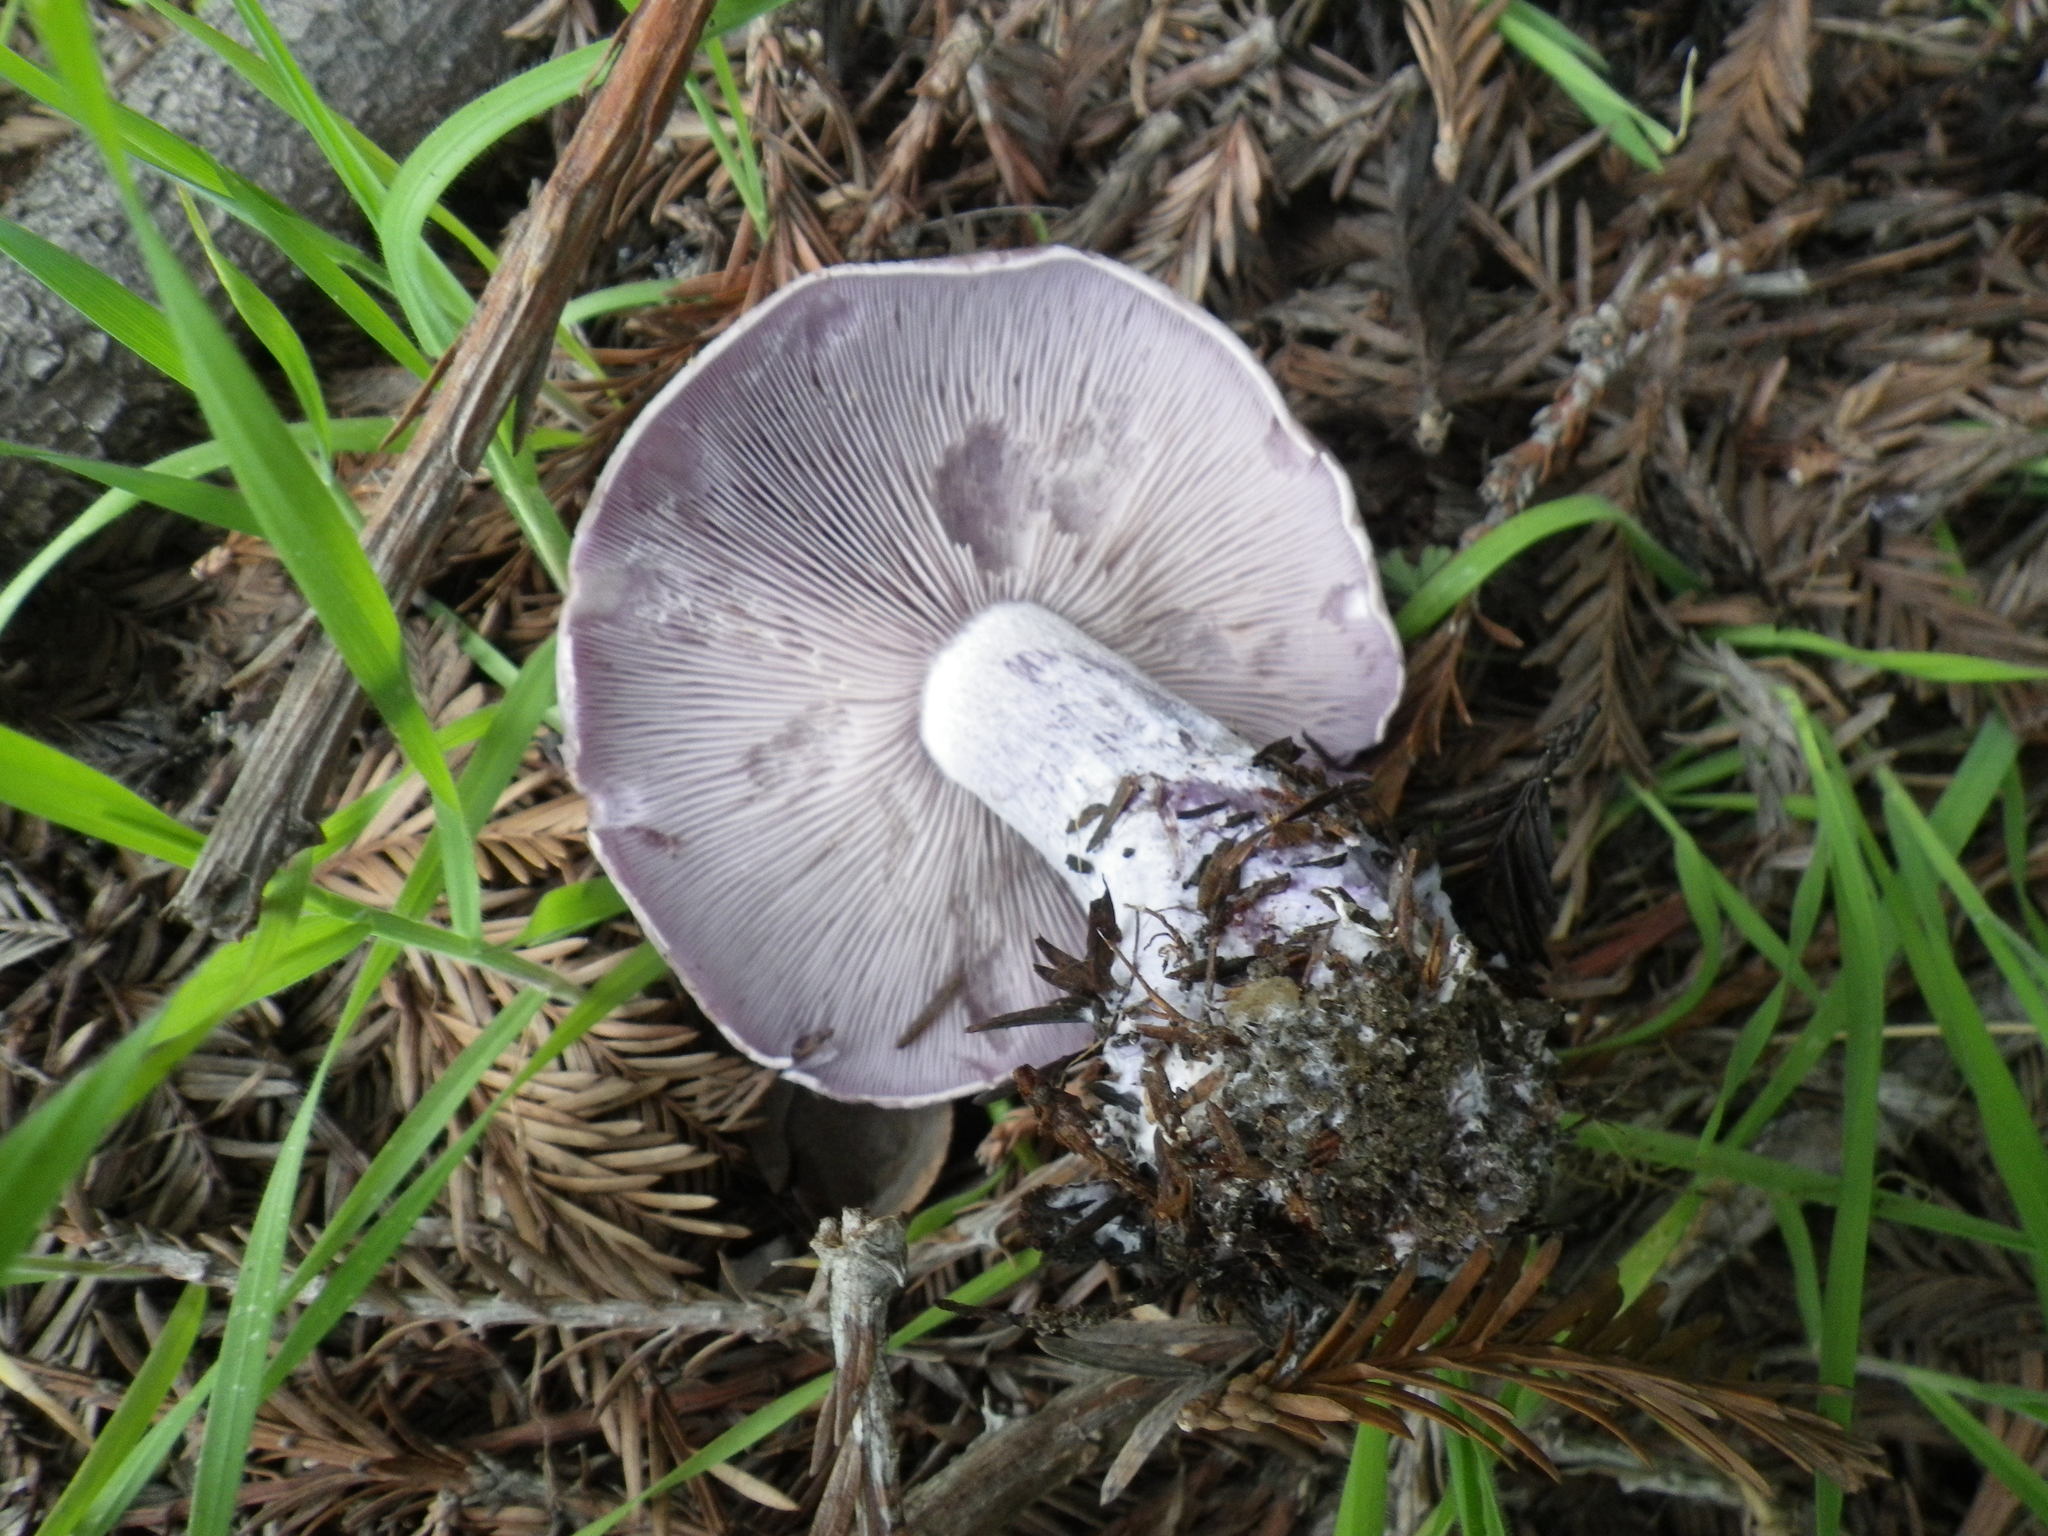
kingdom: Fungi
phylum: Basidiomycota
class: Agaricomycetes
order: Agaricales
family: Tricholomataceae
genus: Collybia
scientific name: Collybia
